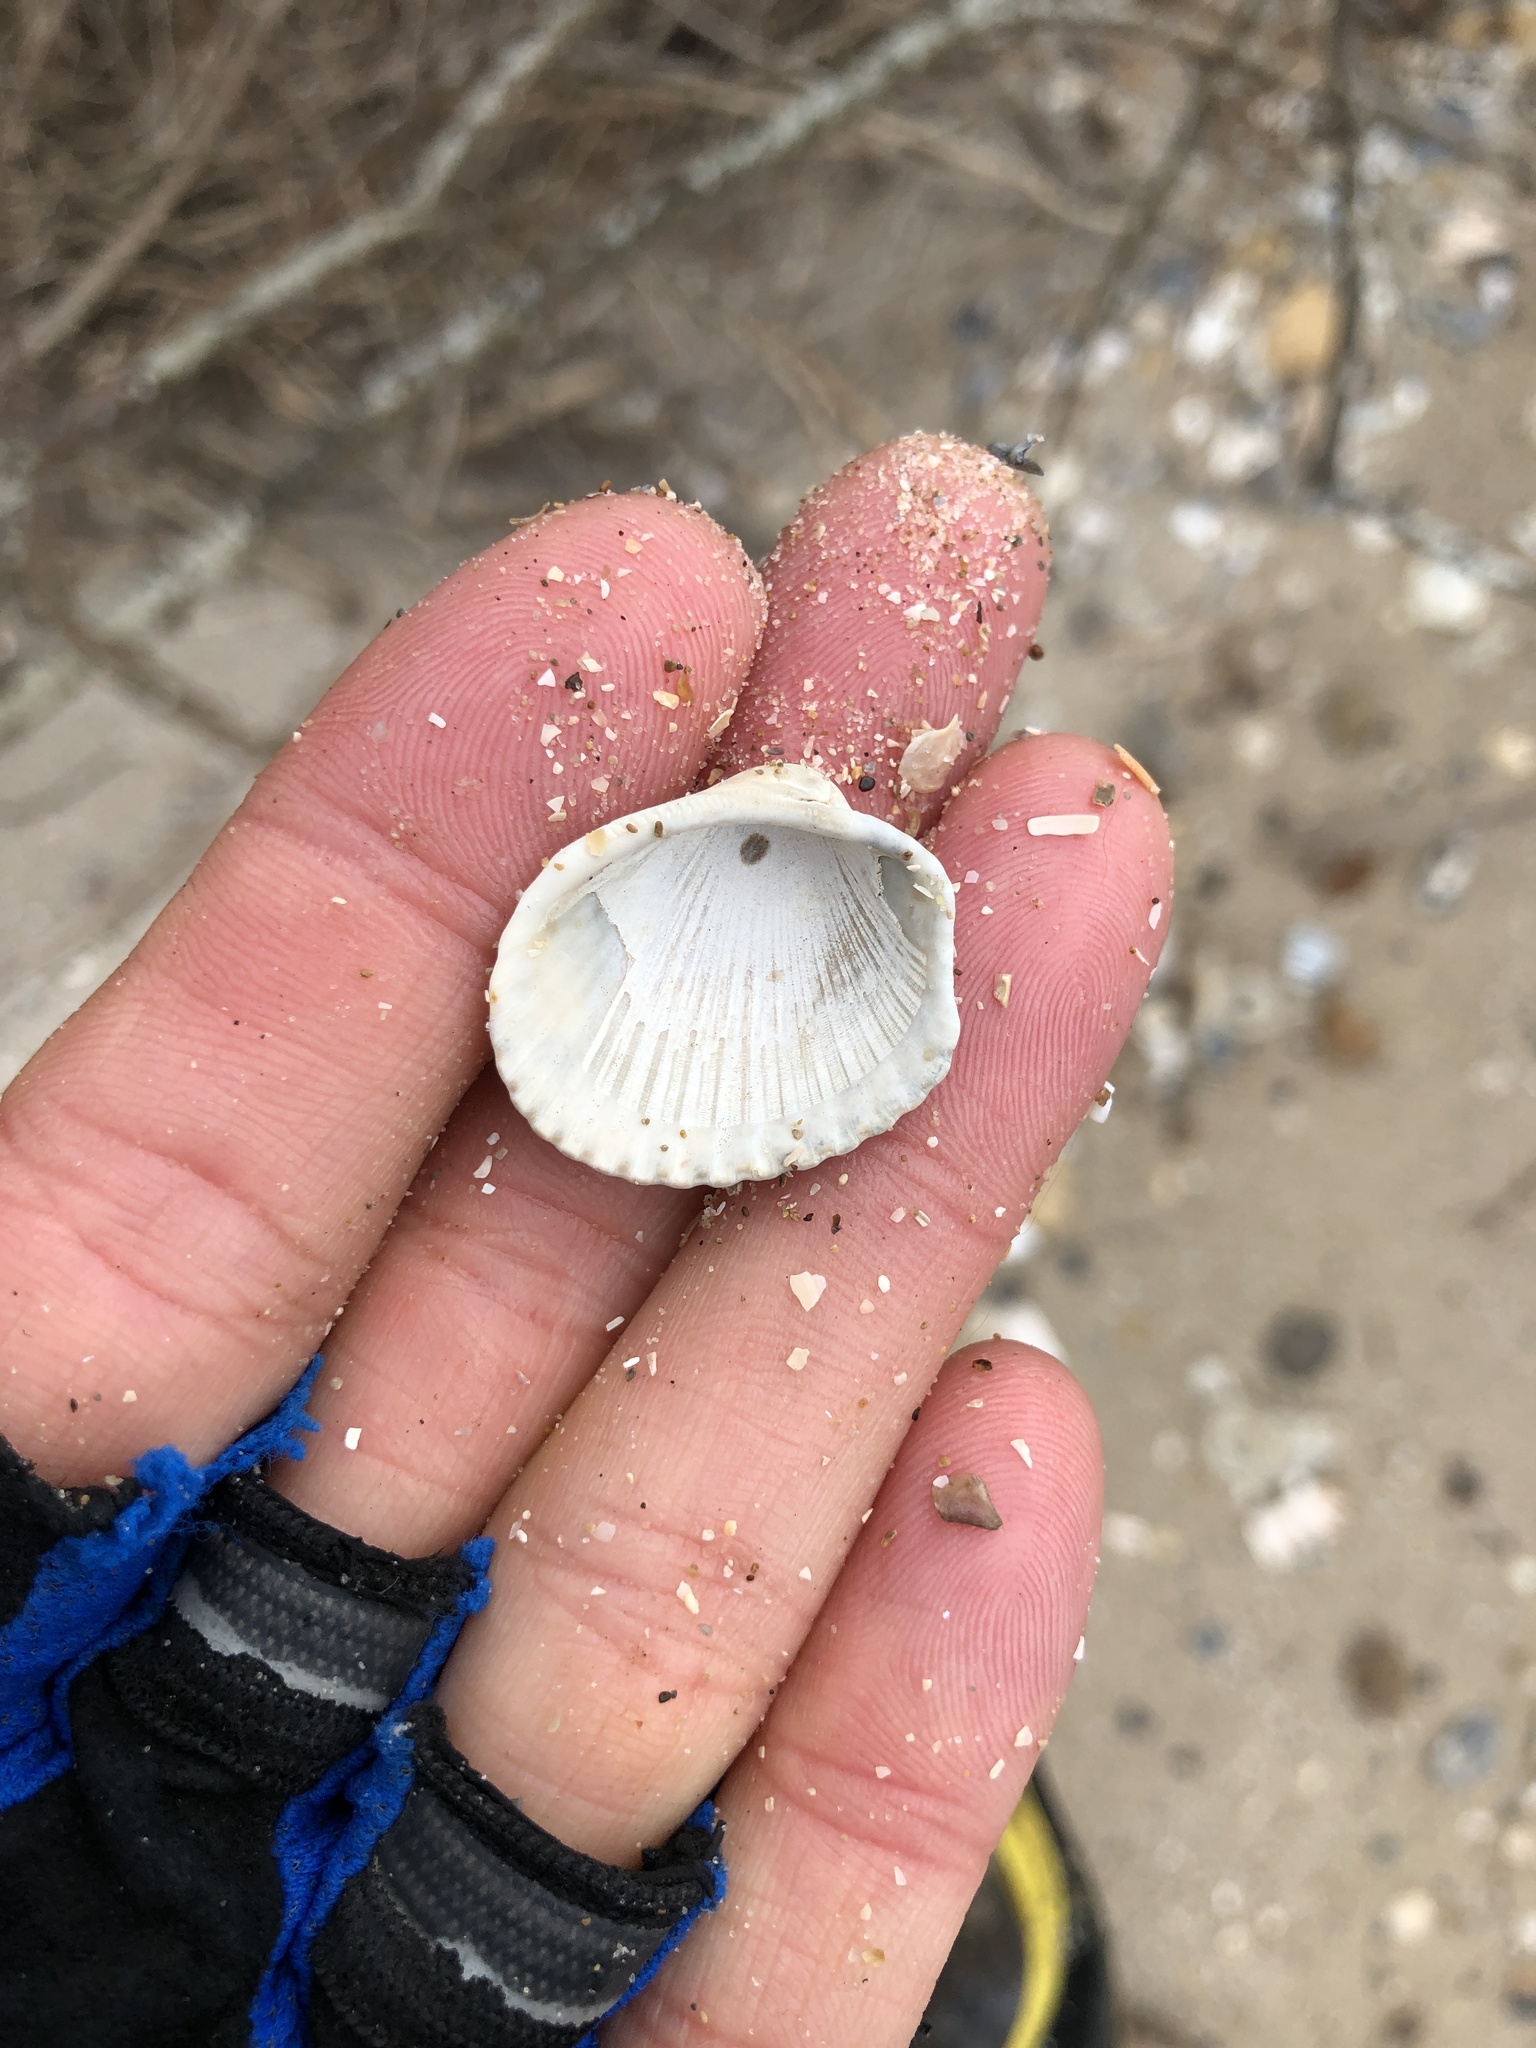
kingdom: Animalia
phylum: Mollusca
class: Bivalvia
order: Arcida
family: Arcidae
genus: Lunarca
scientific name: Lunarca ovalis
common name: Blood ark
